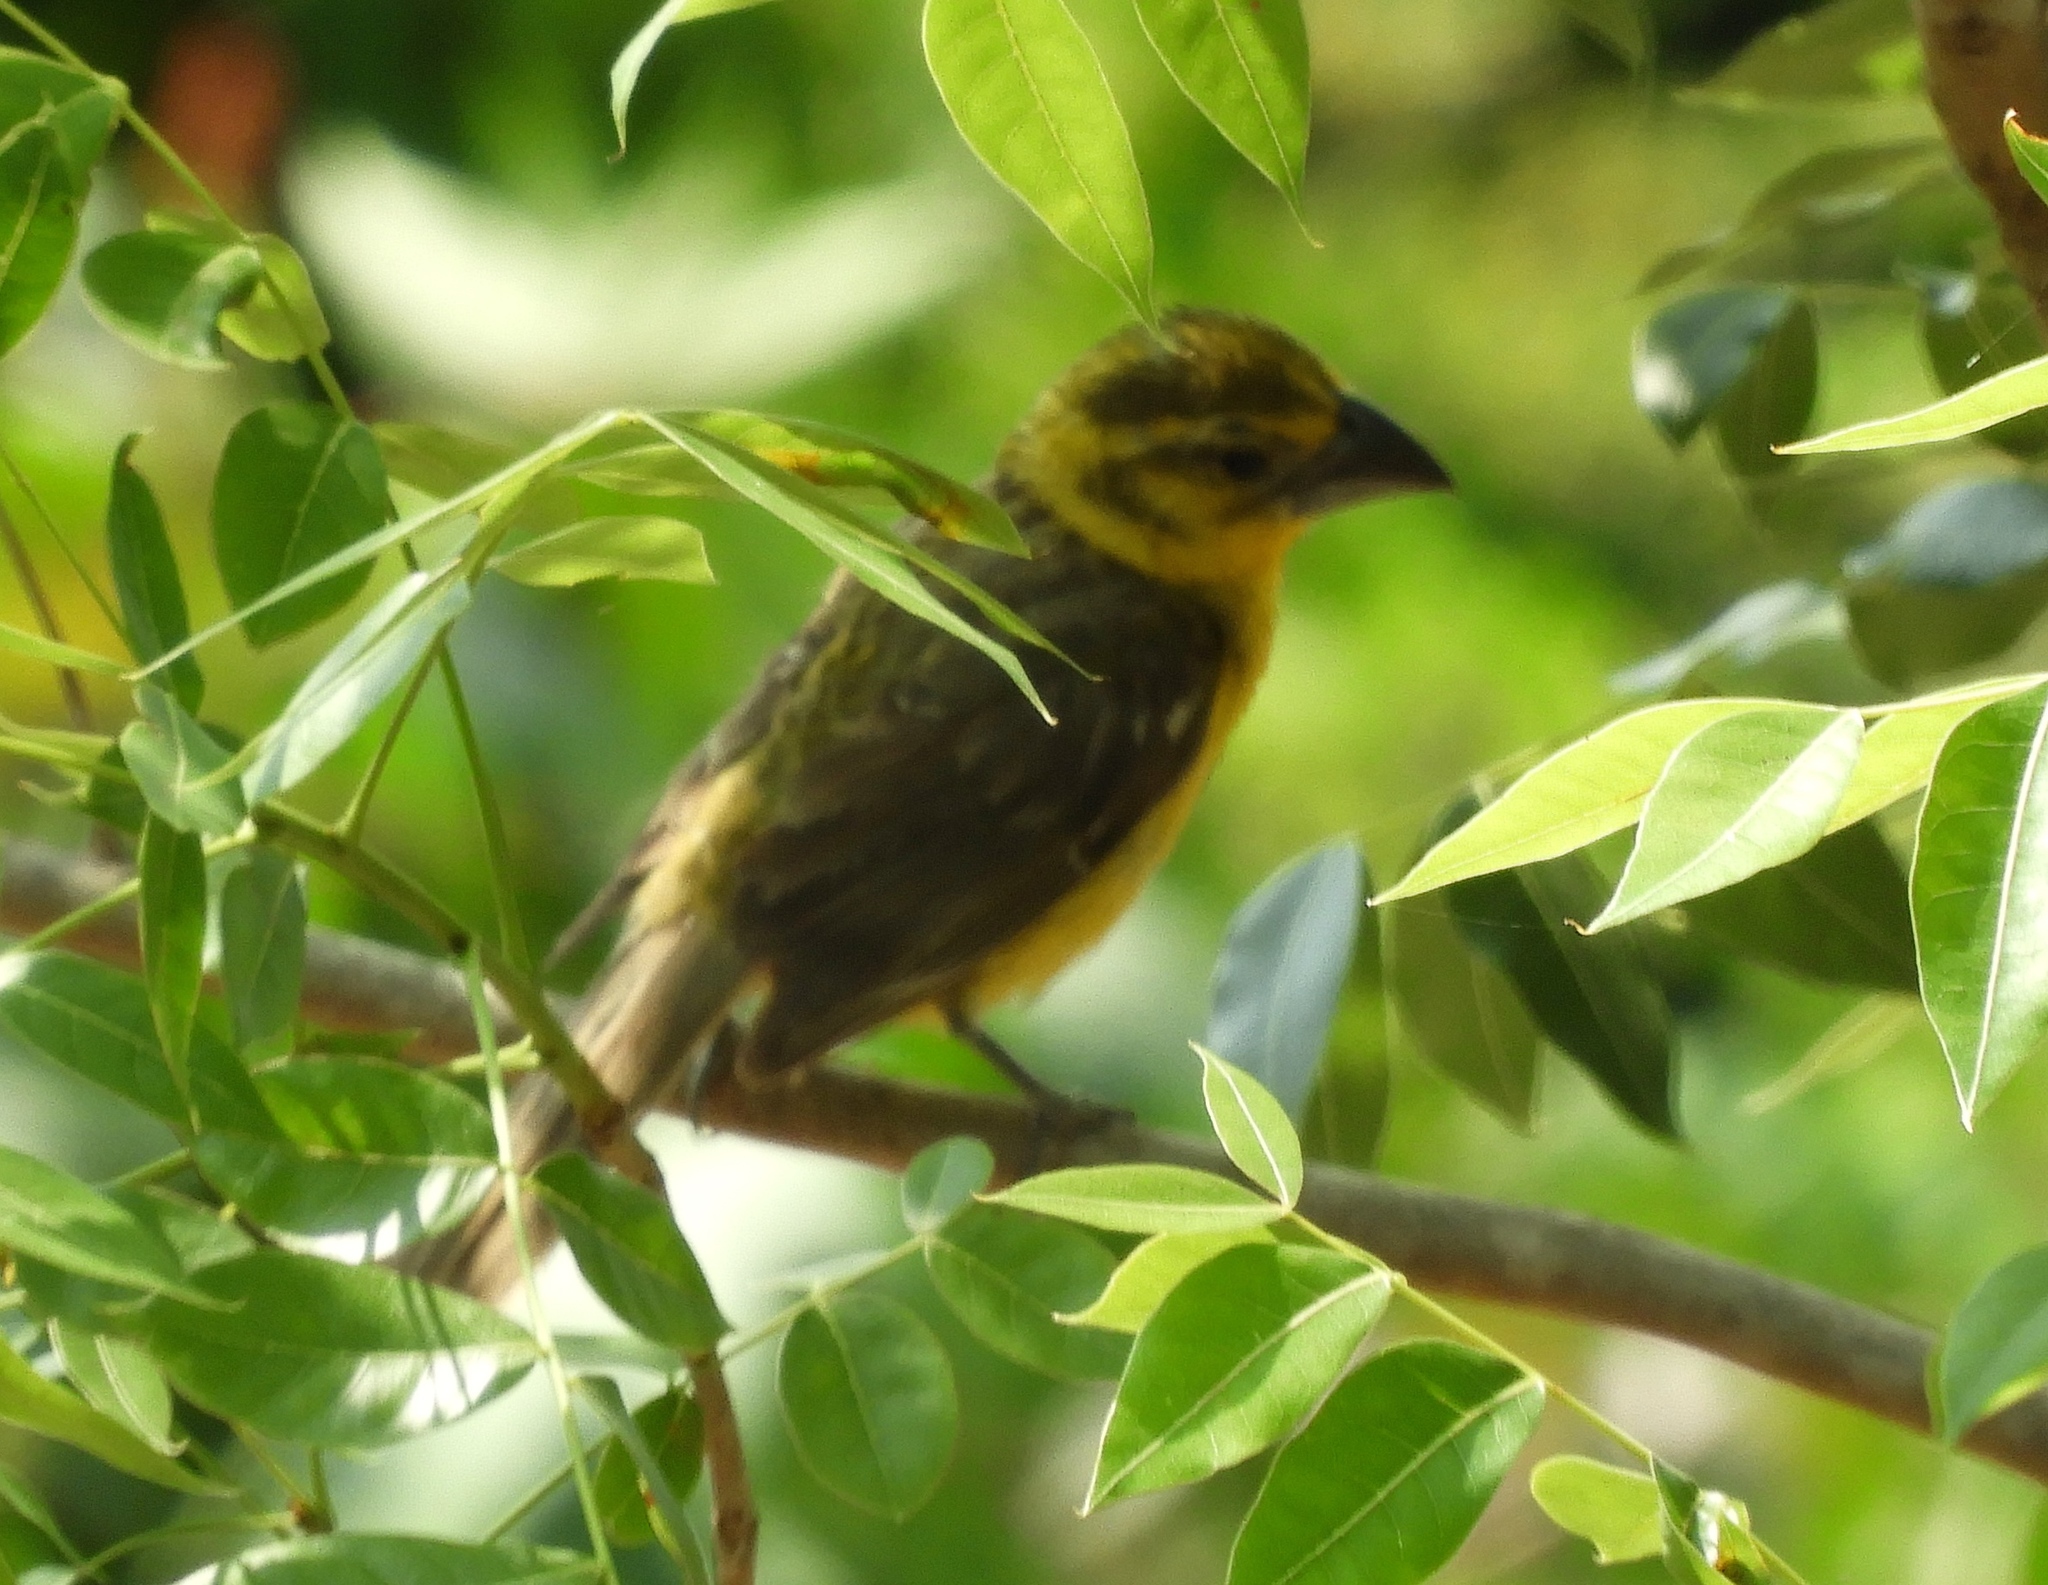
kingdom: Animalia
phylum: Chordata
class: Aves
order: Passeriformes
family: Cardinalidae
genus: Pheucticus
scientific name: Pheucticus chrysopeplus
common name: Yellow grosbeak
